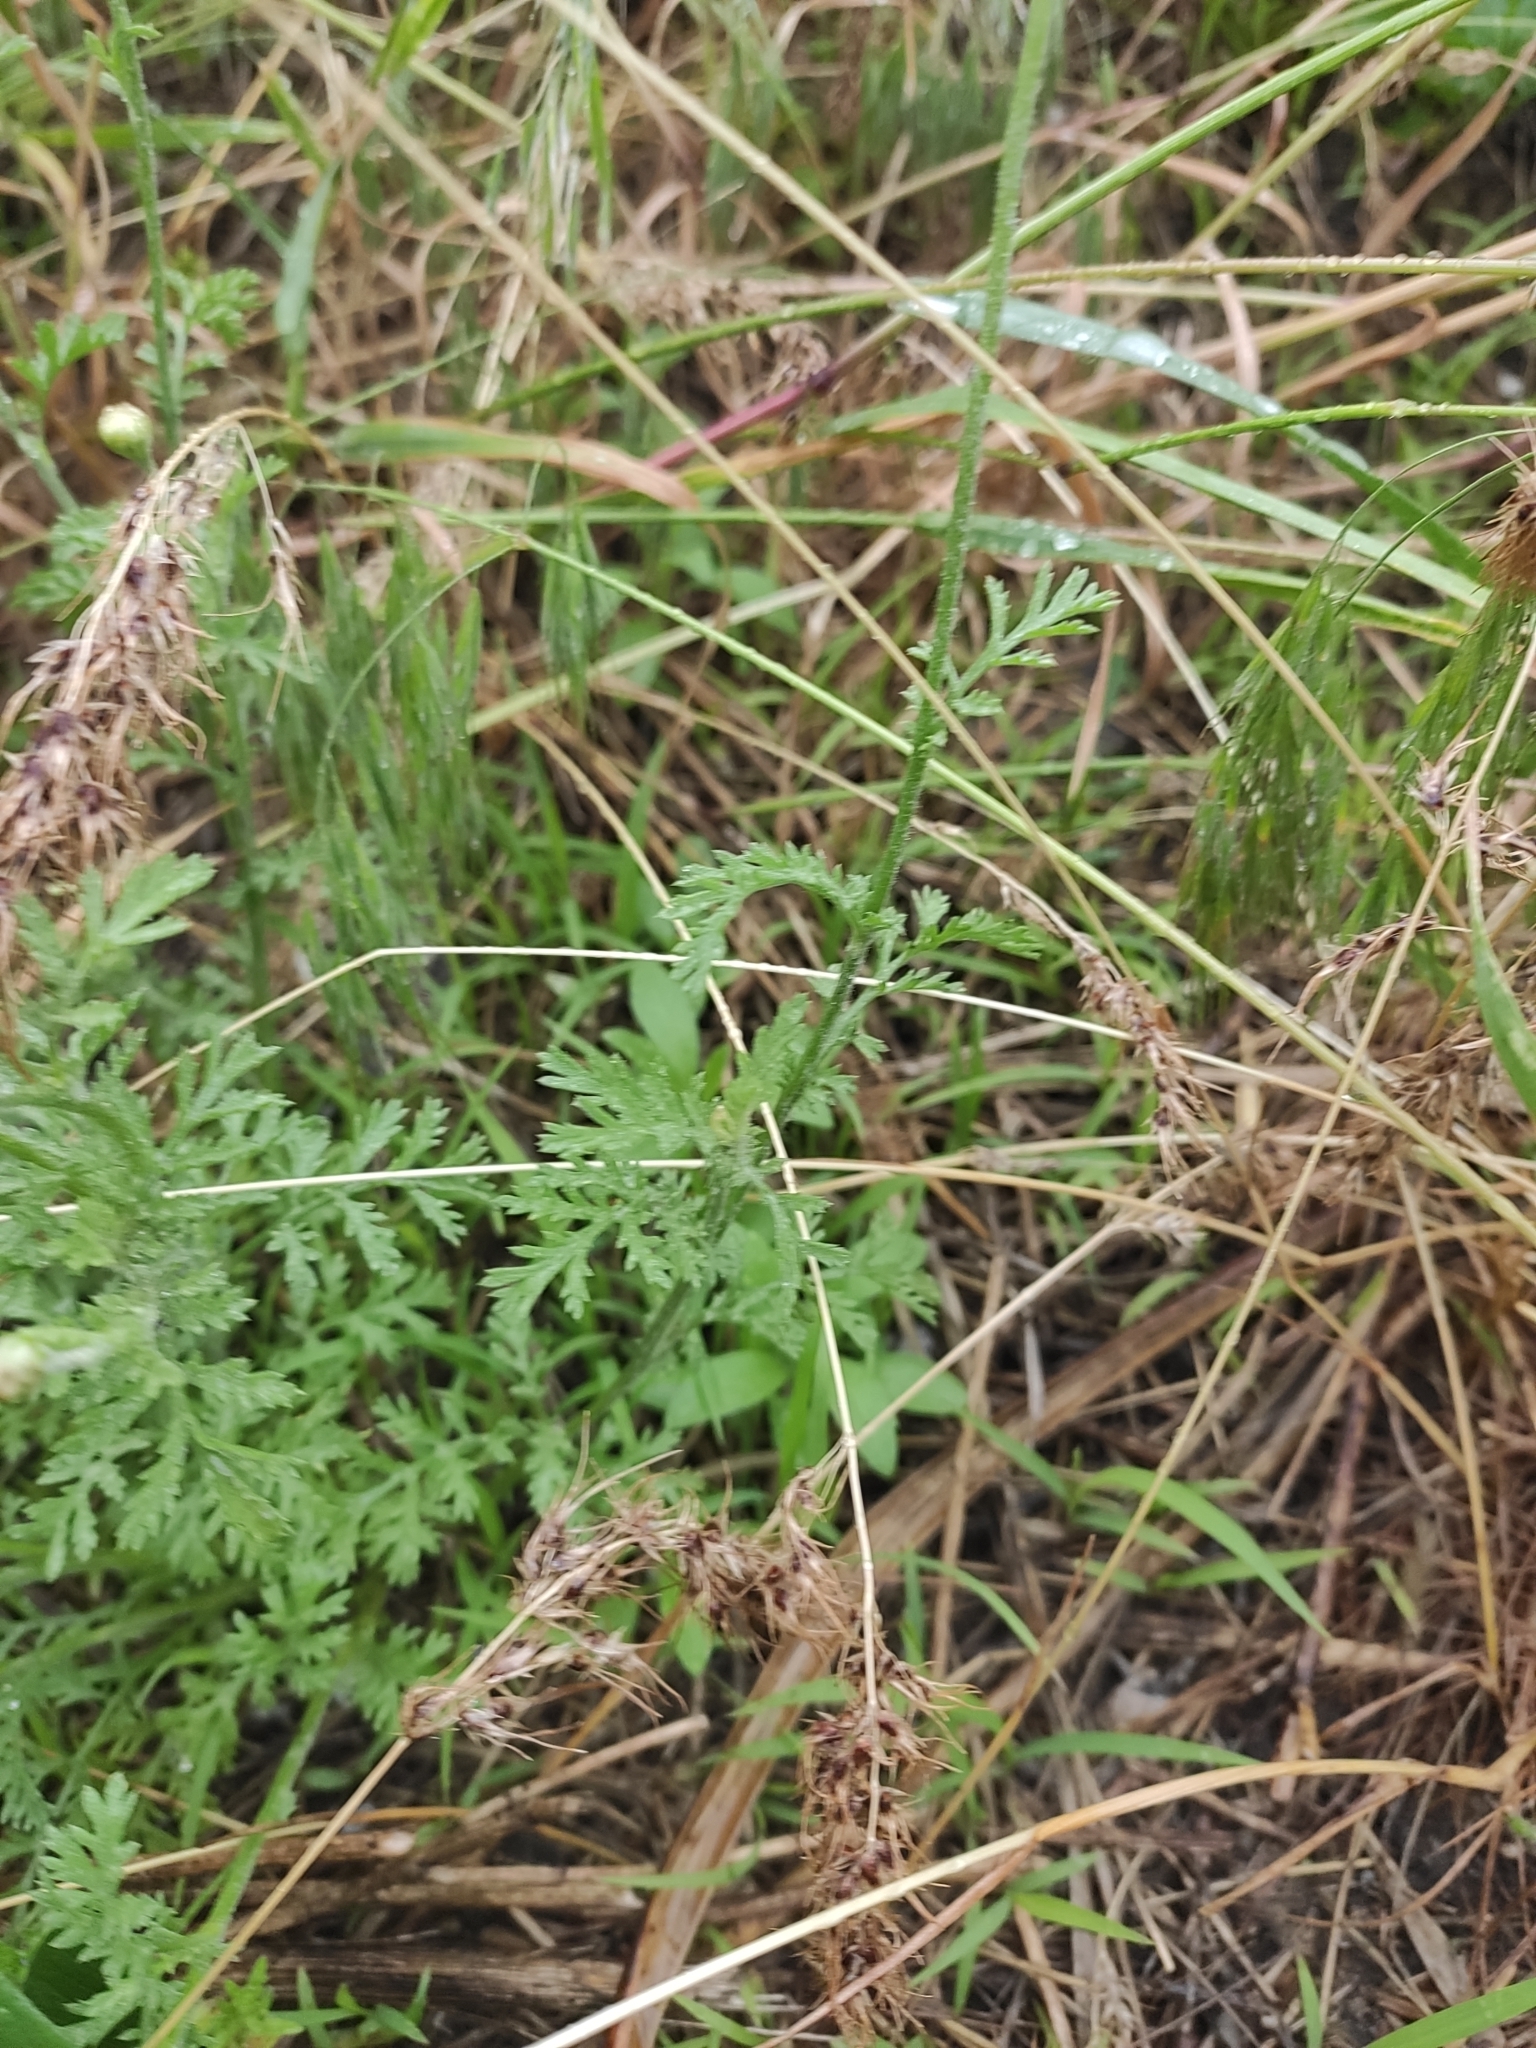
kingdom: Plantae
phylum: Tracheophyta
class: Magnoliopsida
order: Asterales
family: Asteraceae
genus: Anthemis
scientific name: Anthemis ruthenica
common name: Eastern chamomile
